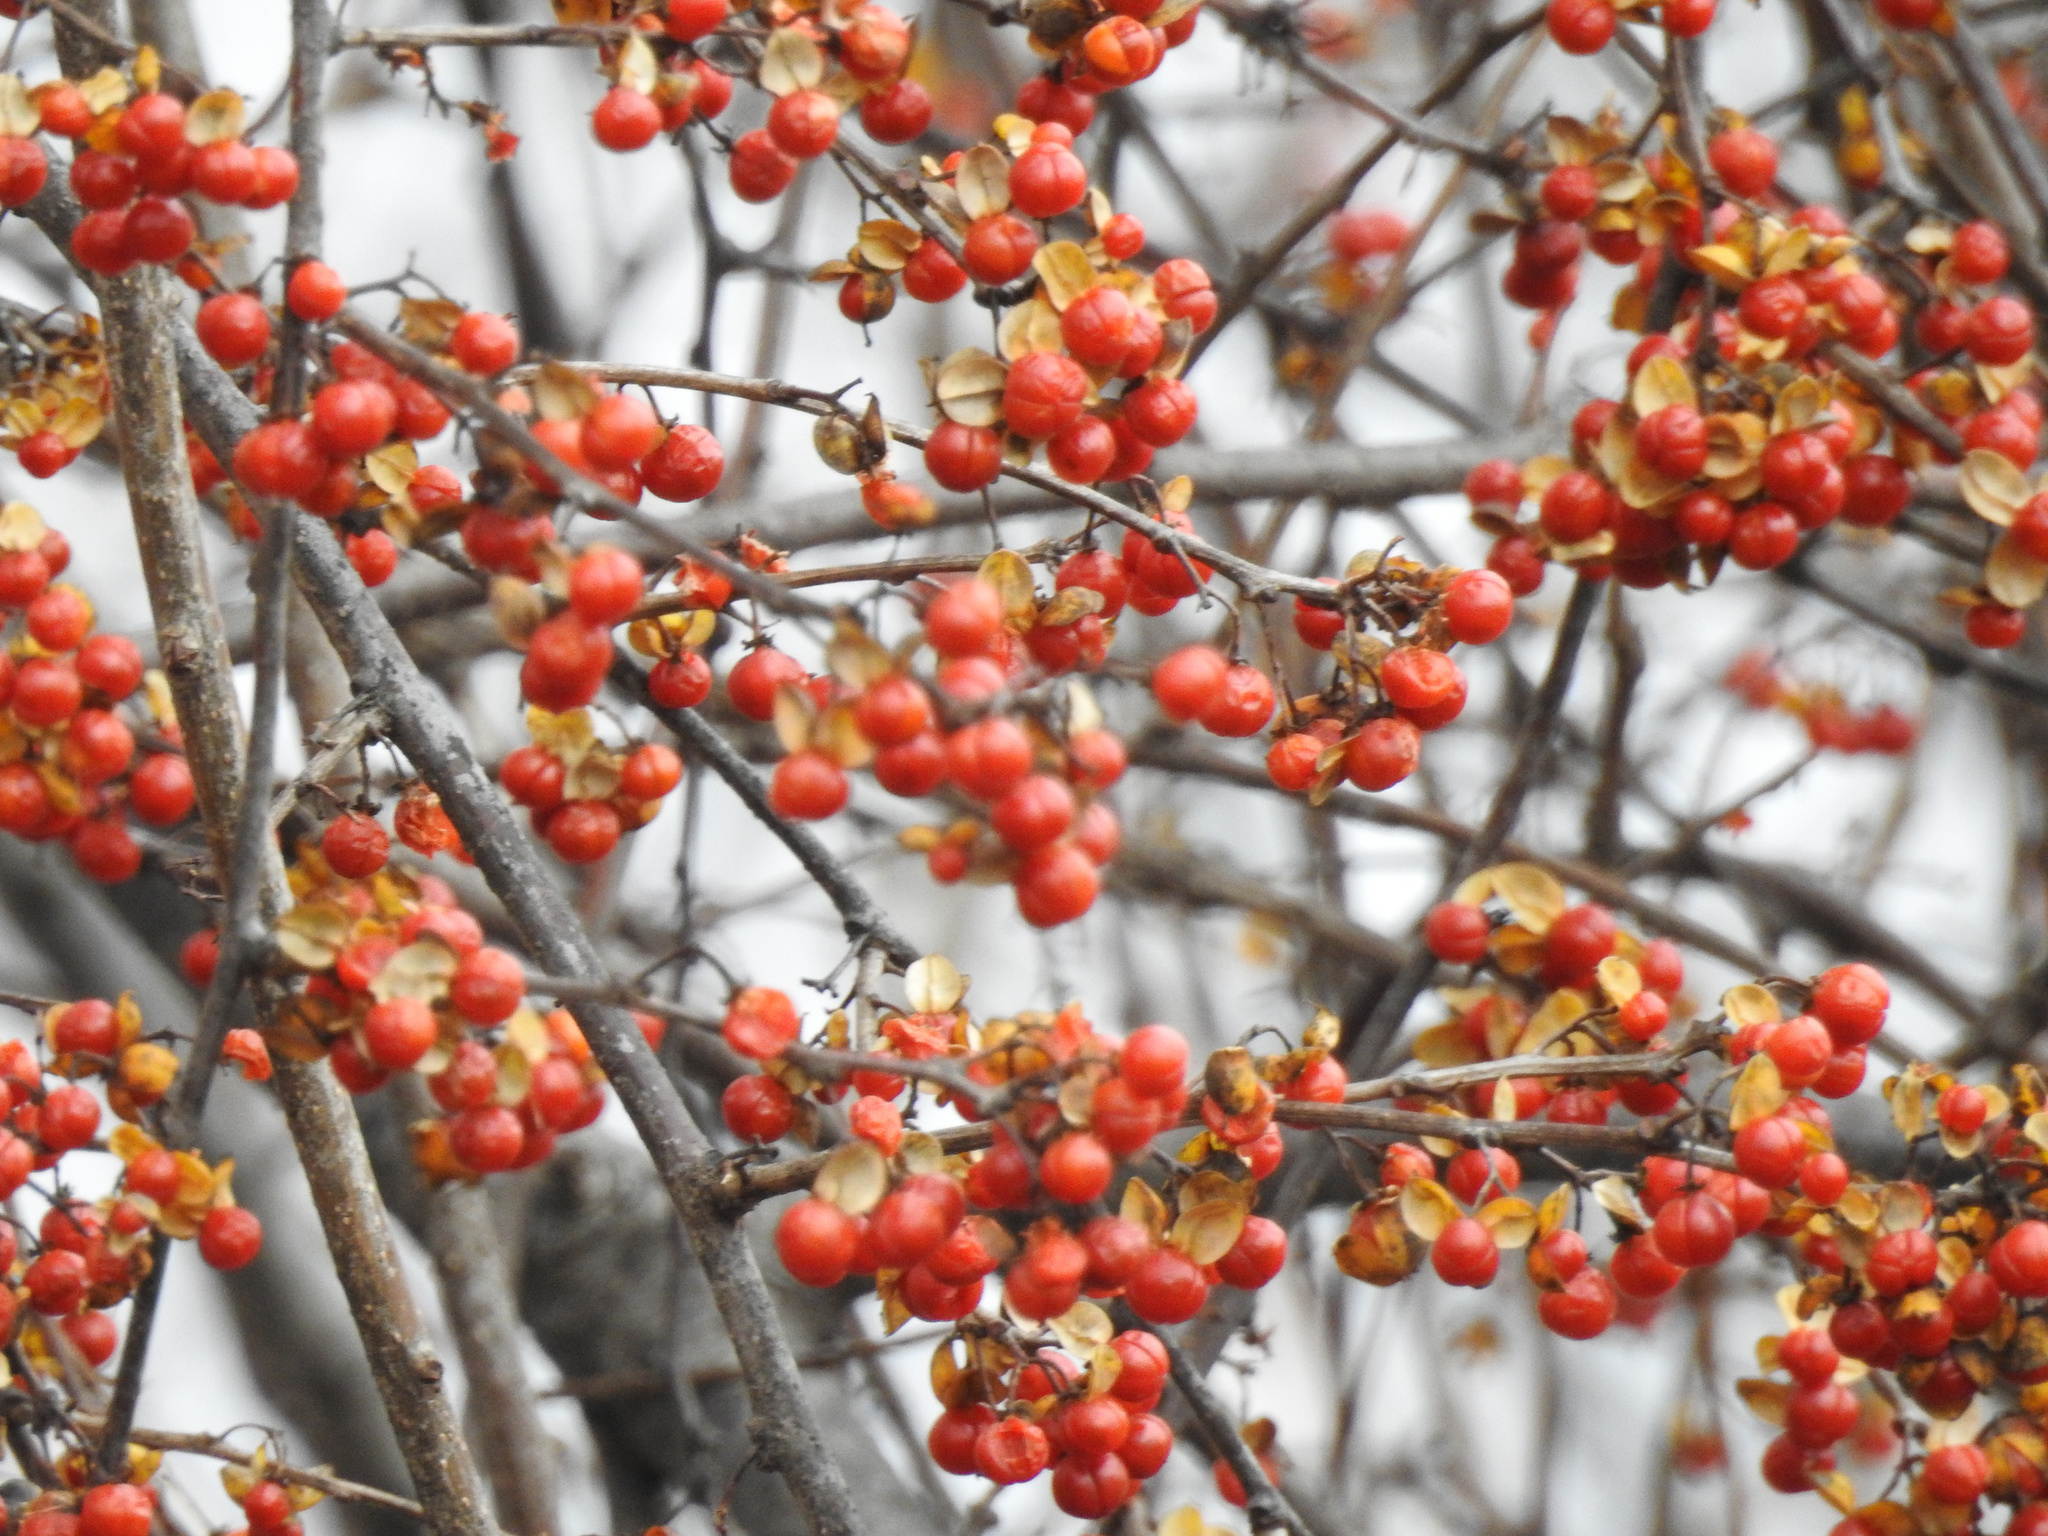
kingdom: Plantae
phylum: Tracheophyta
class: Magnoliopsida
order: Celastrales
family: Celastraceae
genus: Celastrus
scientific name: Celastrus orbiculatus
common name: Oriental bittersweet
